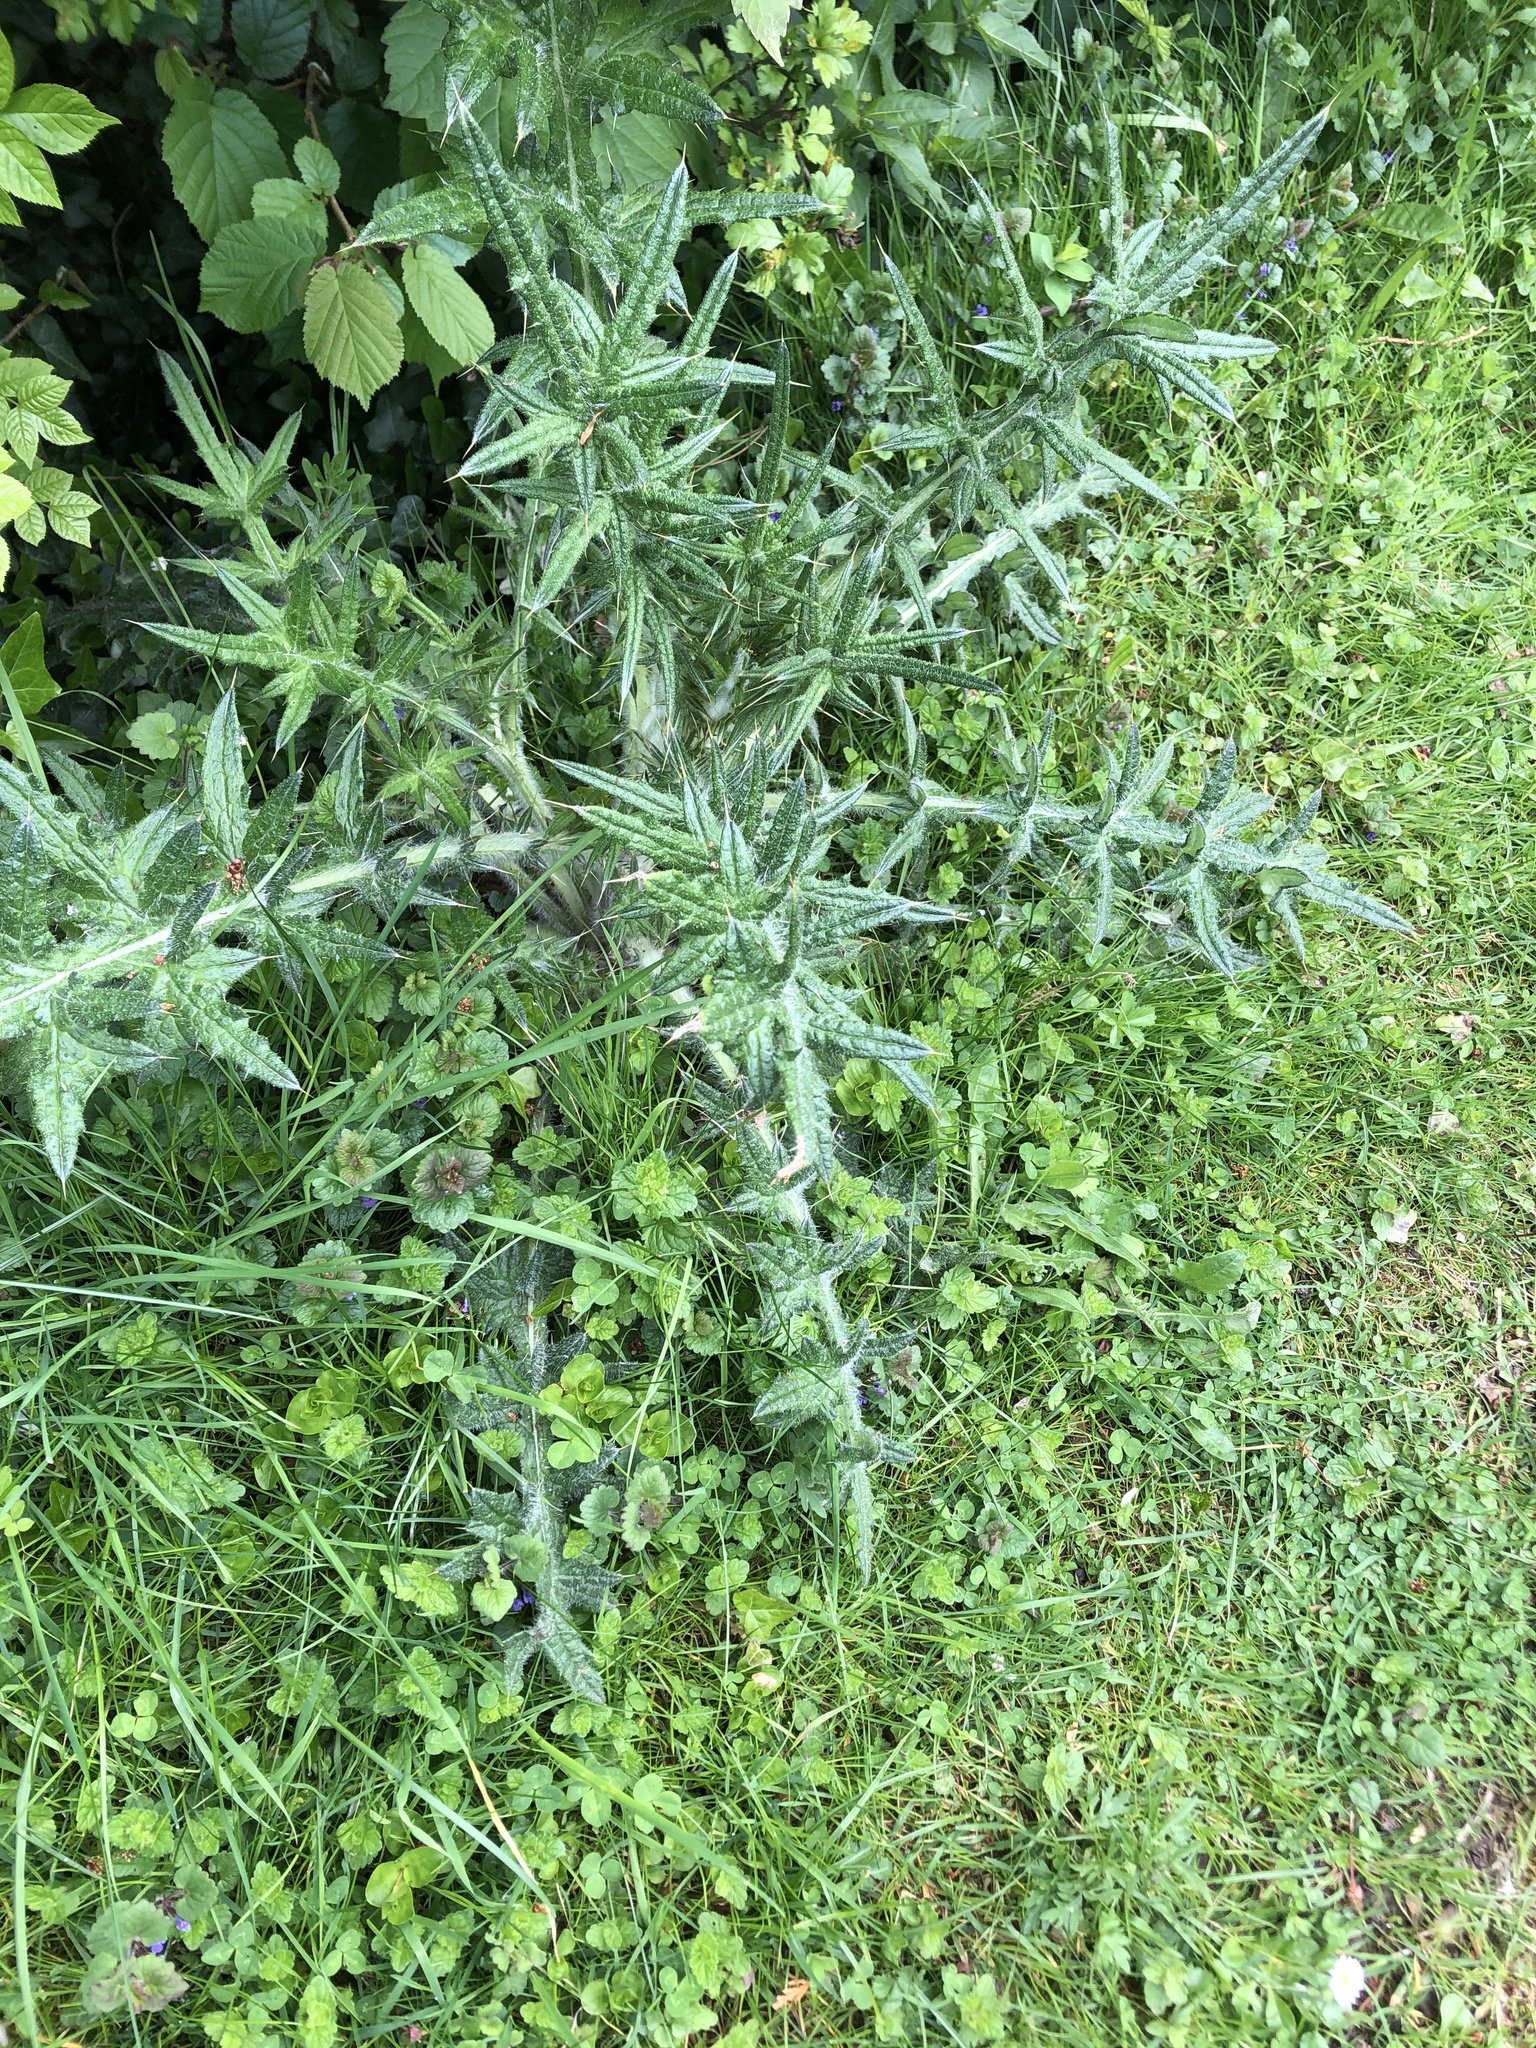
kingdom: Plantae
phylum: Tracheophyta
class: Magnoliopsida
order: Asterales
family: Asteraceae
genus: Cirsium
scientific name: Cirsium vulgare
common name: Bull thistle
